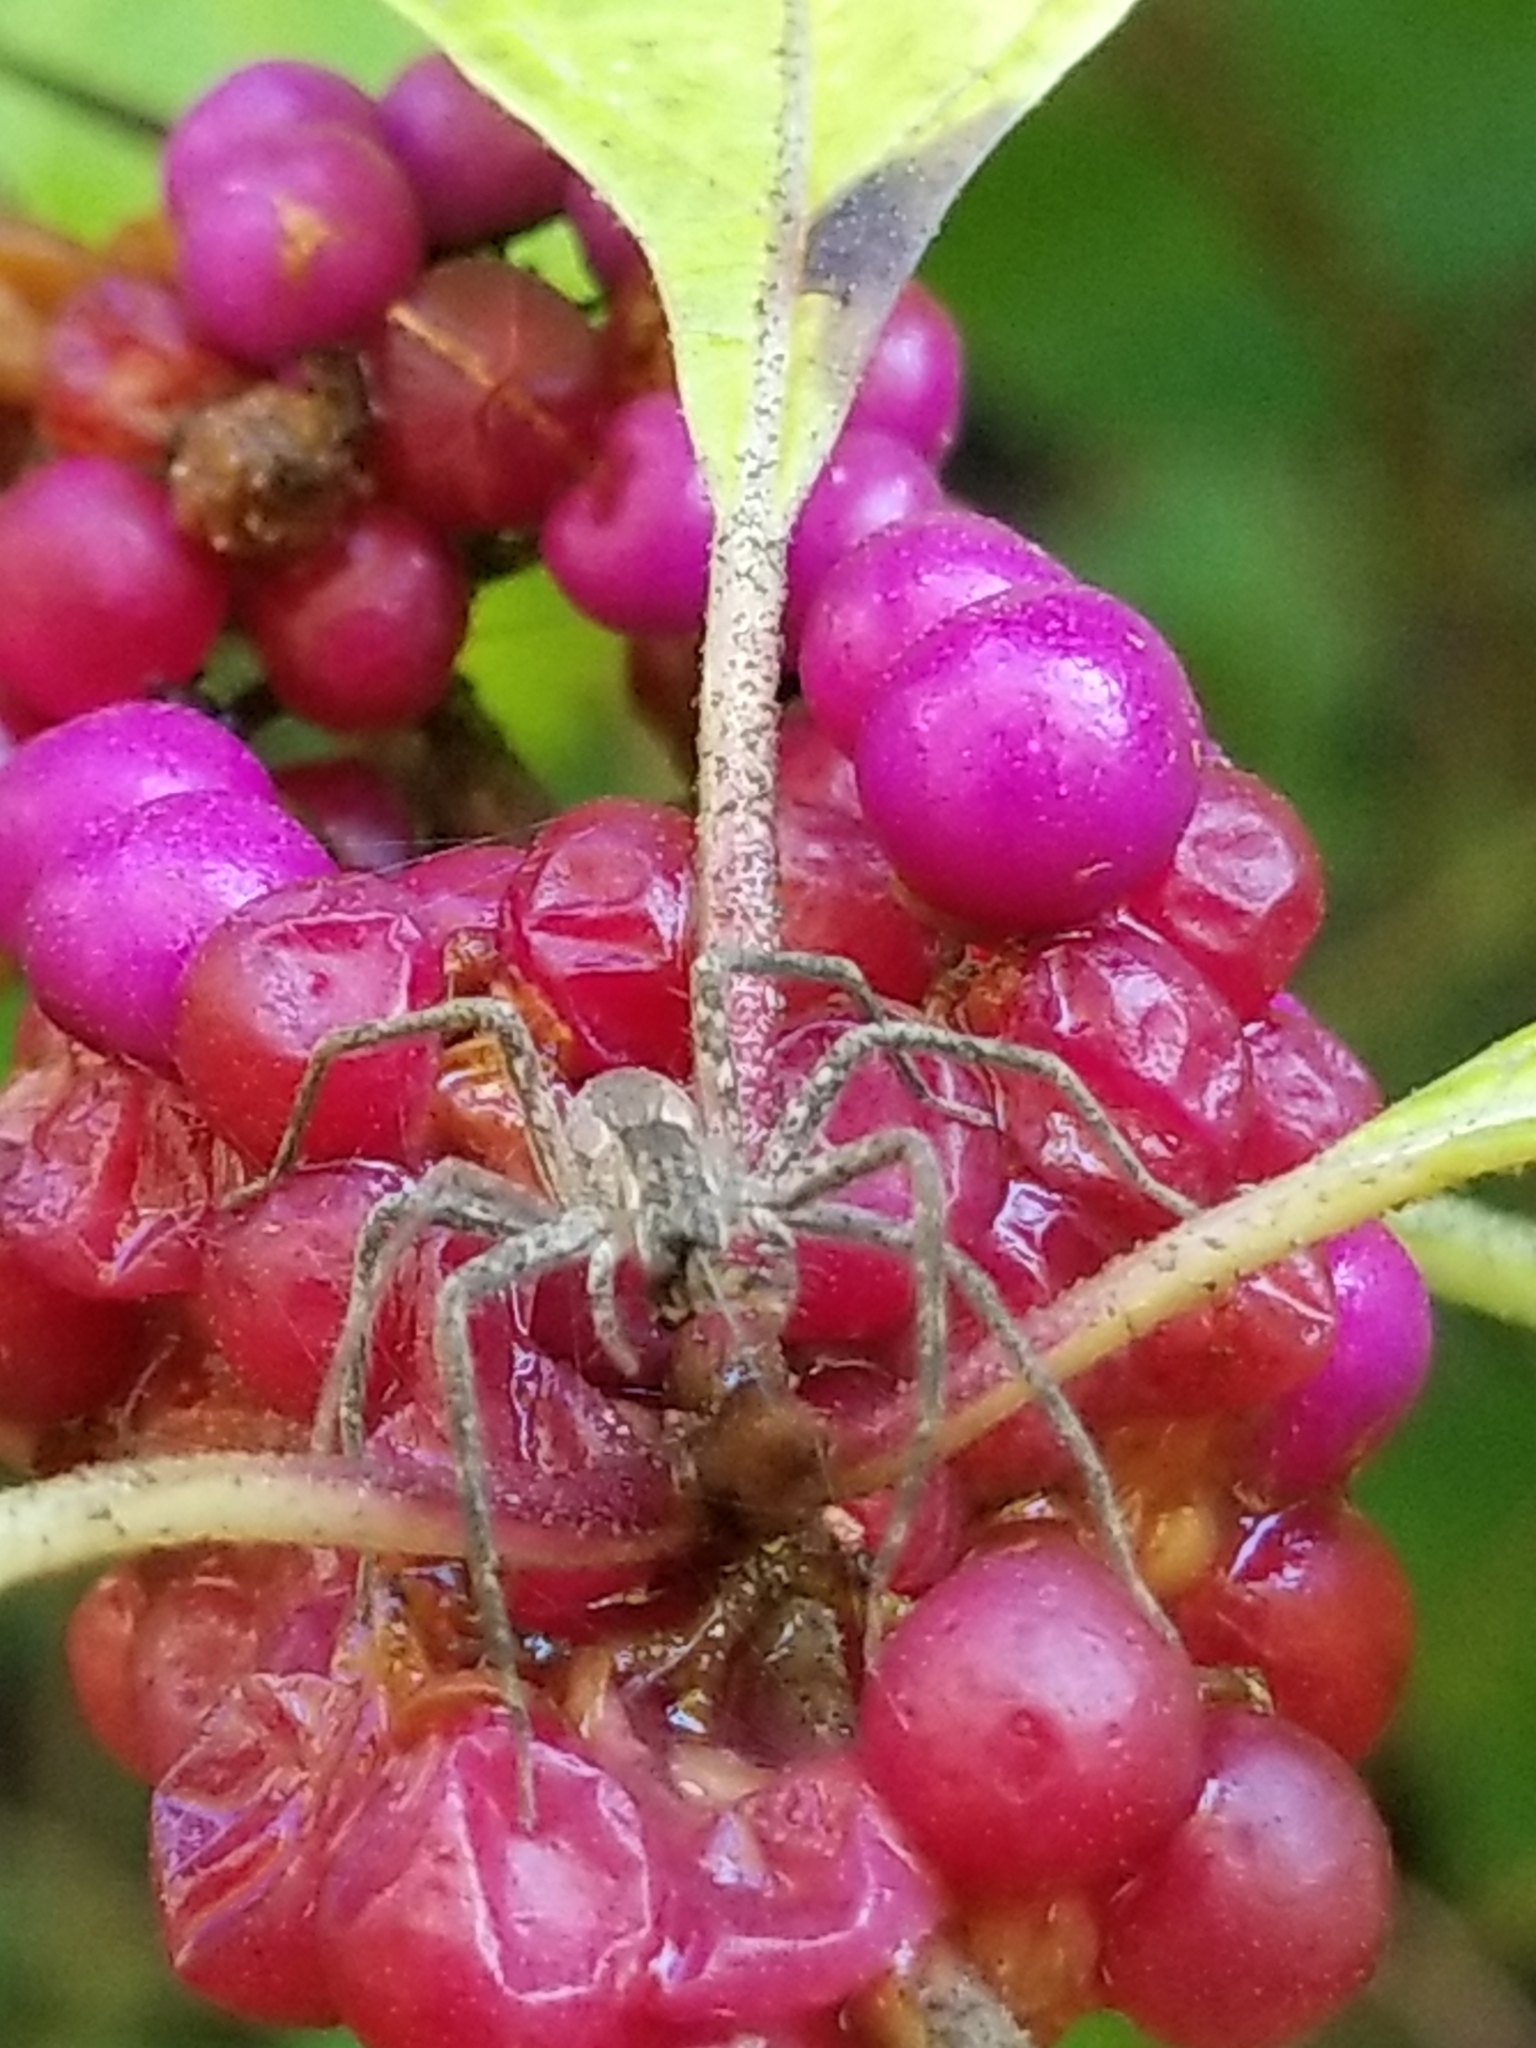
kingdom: Animalia
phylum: Arthropoda
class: Arachnida
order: Araneae
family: Pisauridae
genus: Pisaurina
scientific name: Pisaurina mira
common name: American nursery web spider
